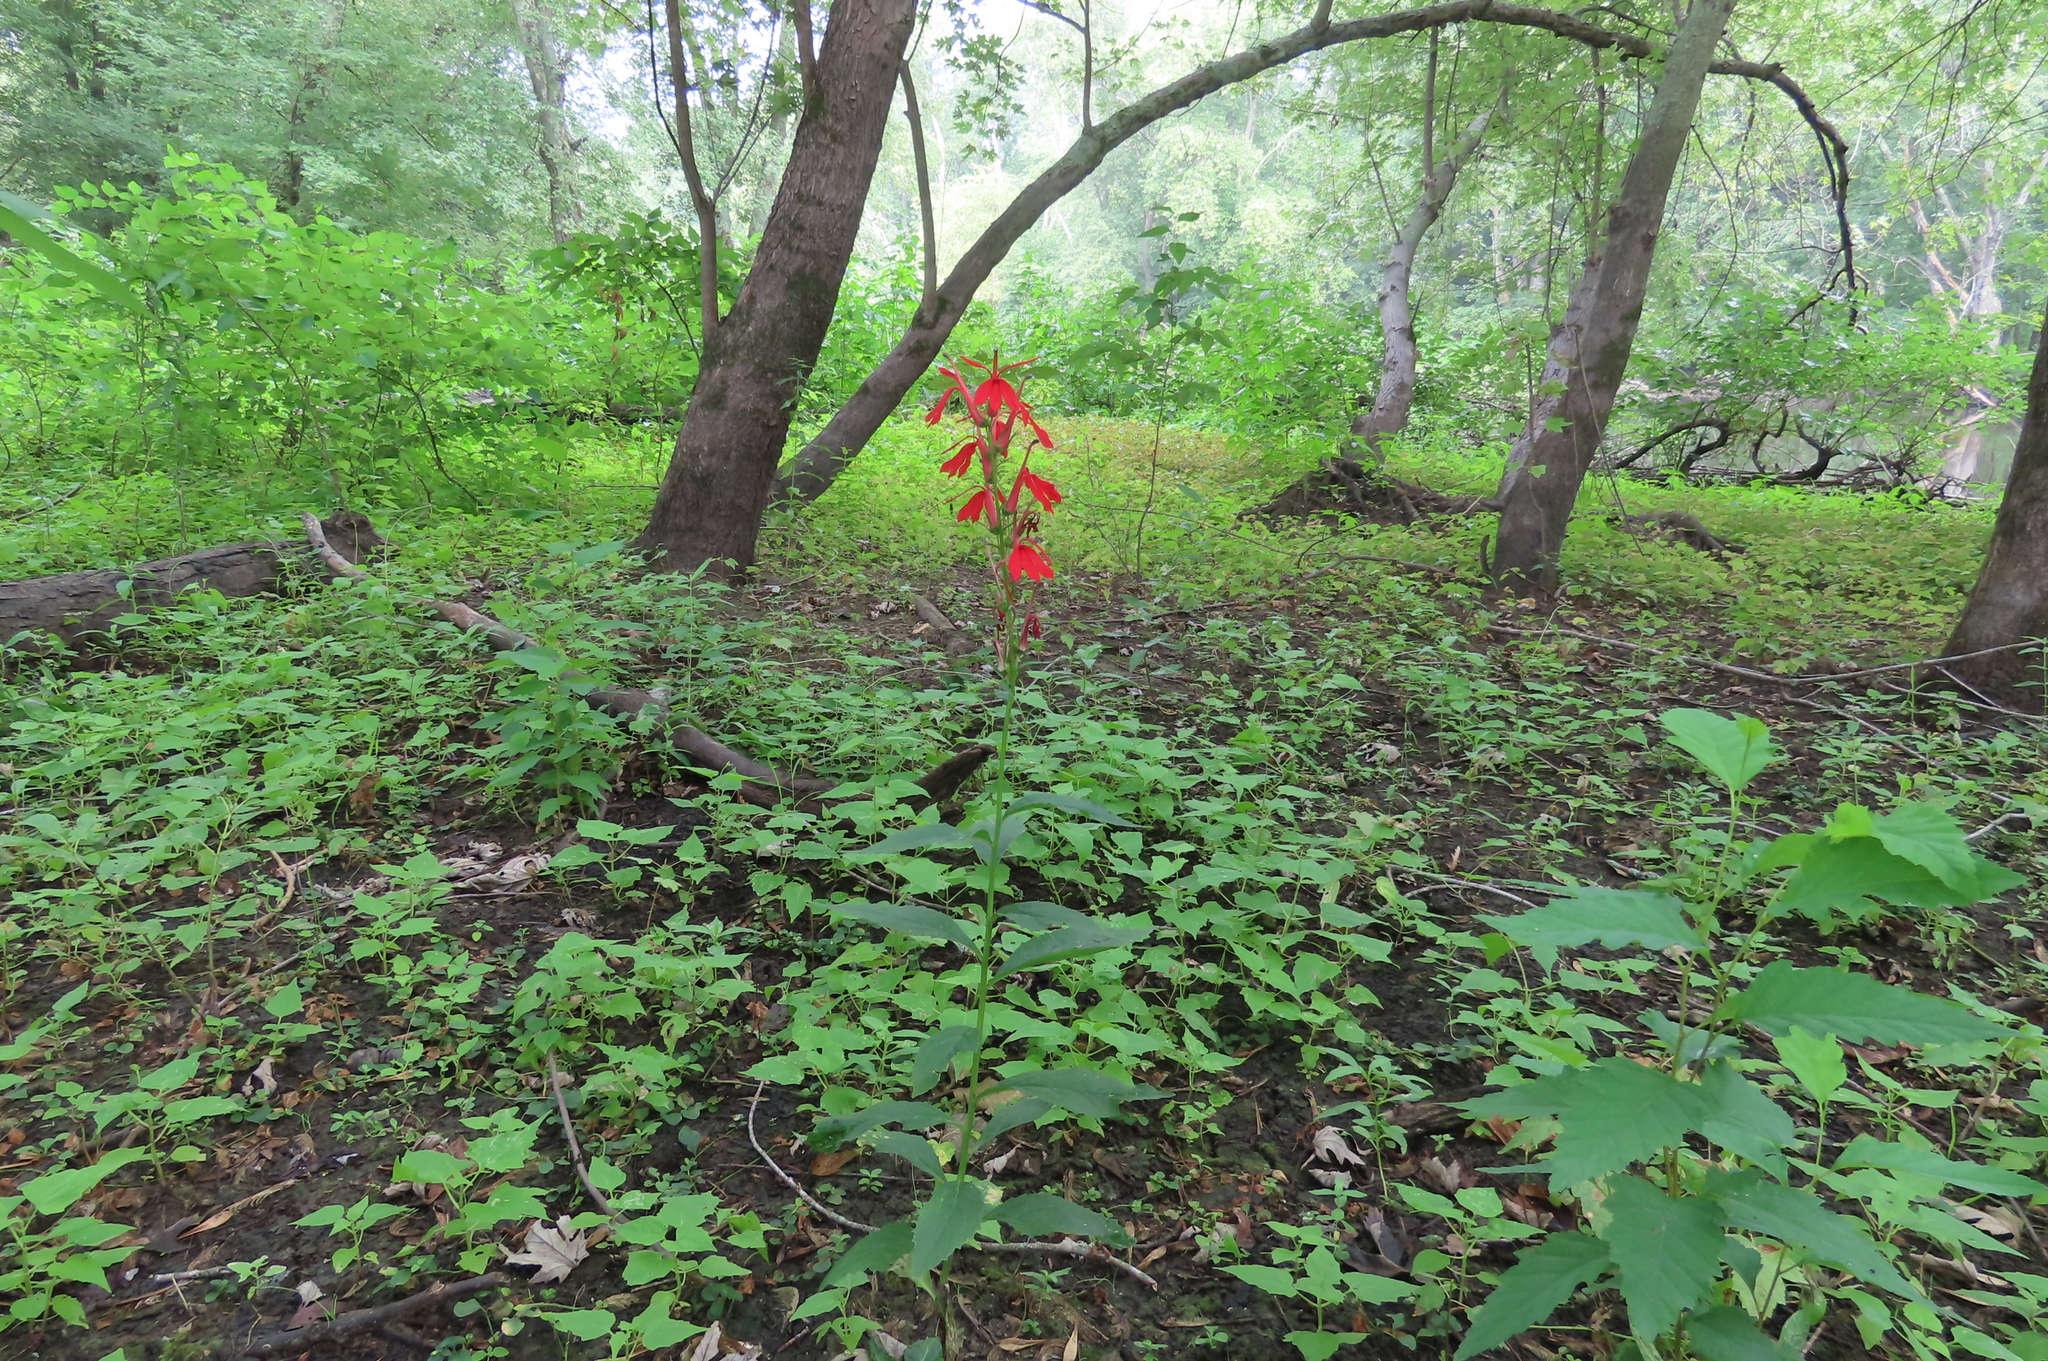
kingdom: Plantae
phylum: Tracheophyta
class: Magnoliopsida
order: Asterales
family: Campanulaceae
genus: Lobelia
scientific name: Lobelia cardinalis
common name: Cardinal flower
